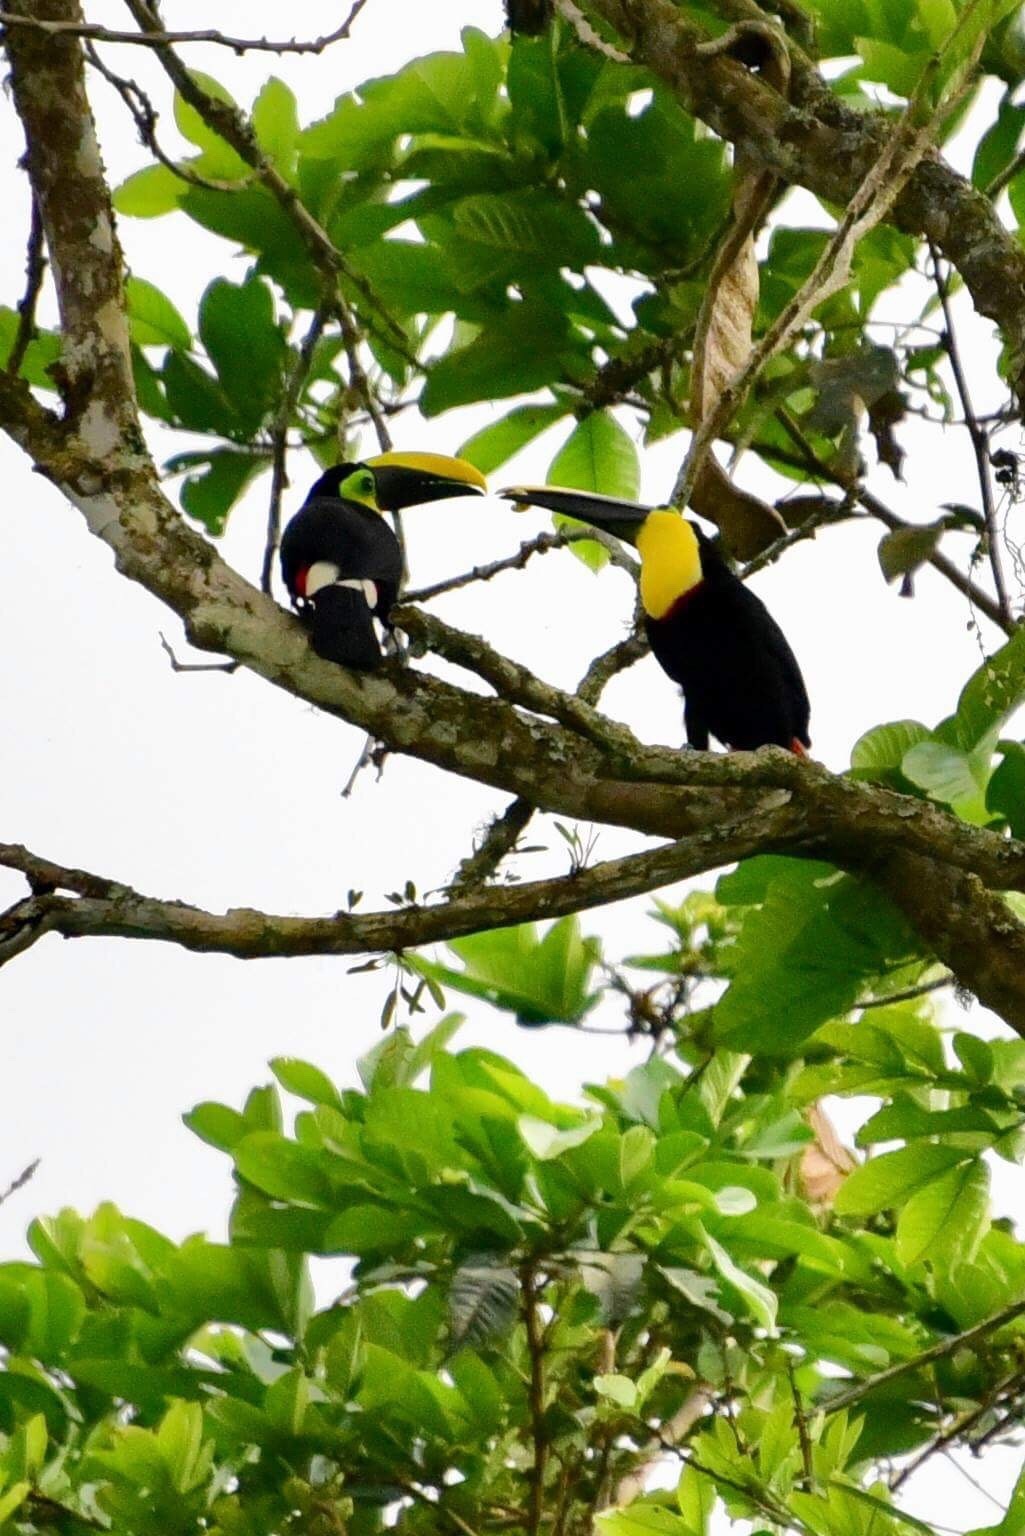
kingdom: Animalia
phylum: Chordata
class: Aves
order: Piciformes
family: Ramphastidae
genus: Ramphastos
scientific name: Ramphastos ambiguus
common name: Yellow-throated toucan
